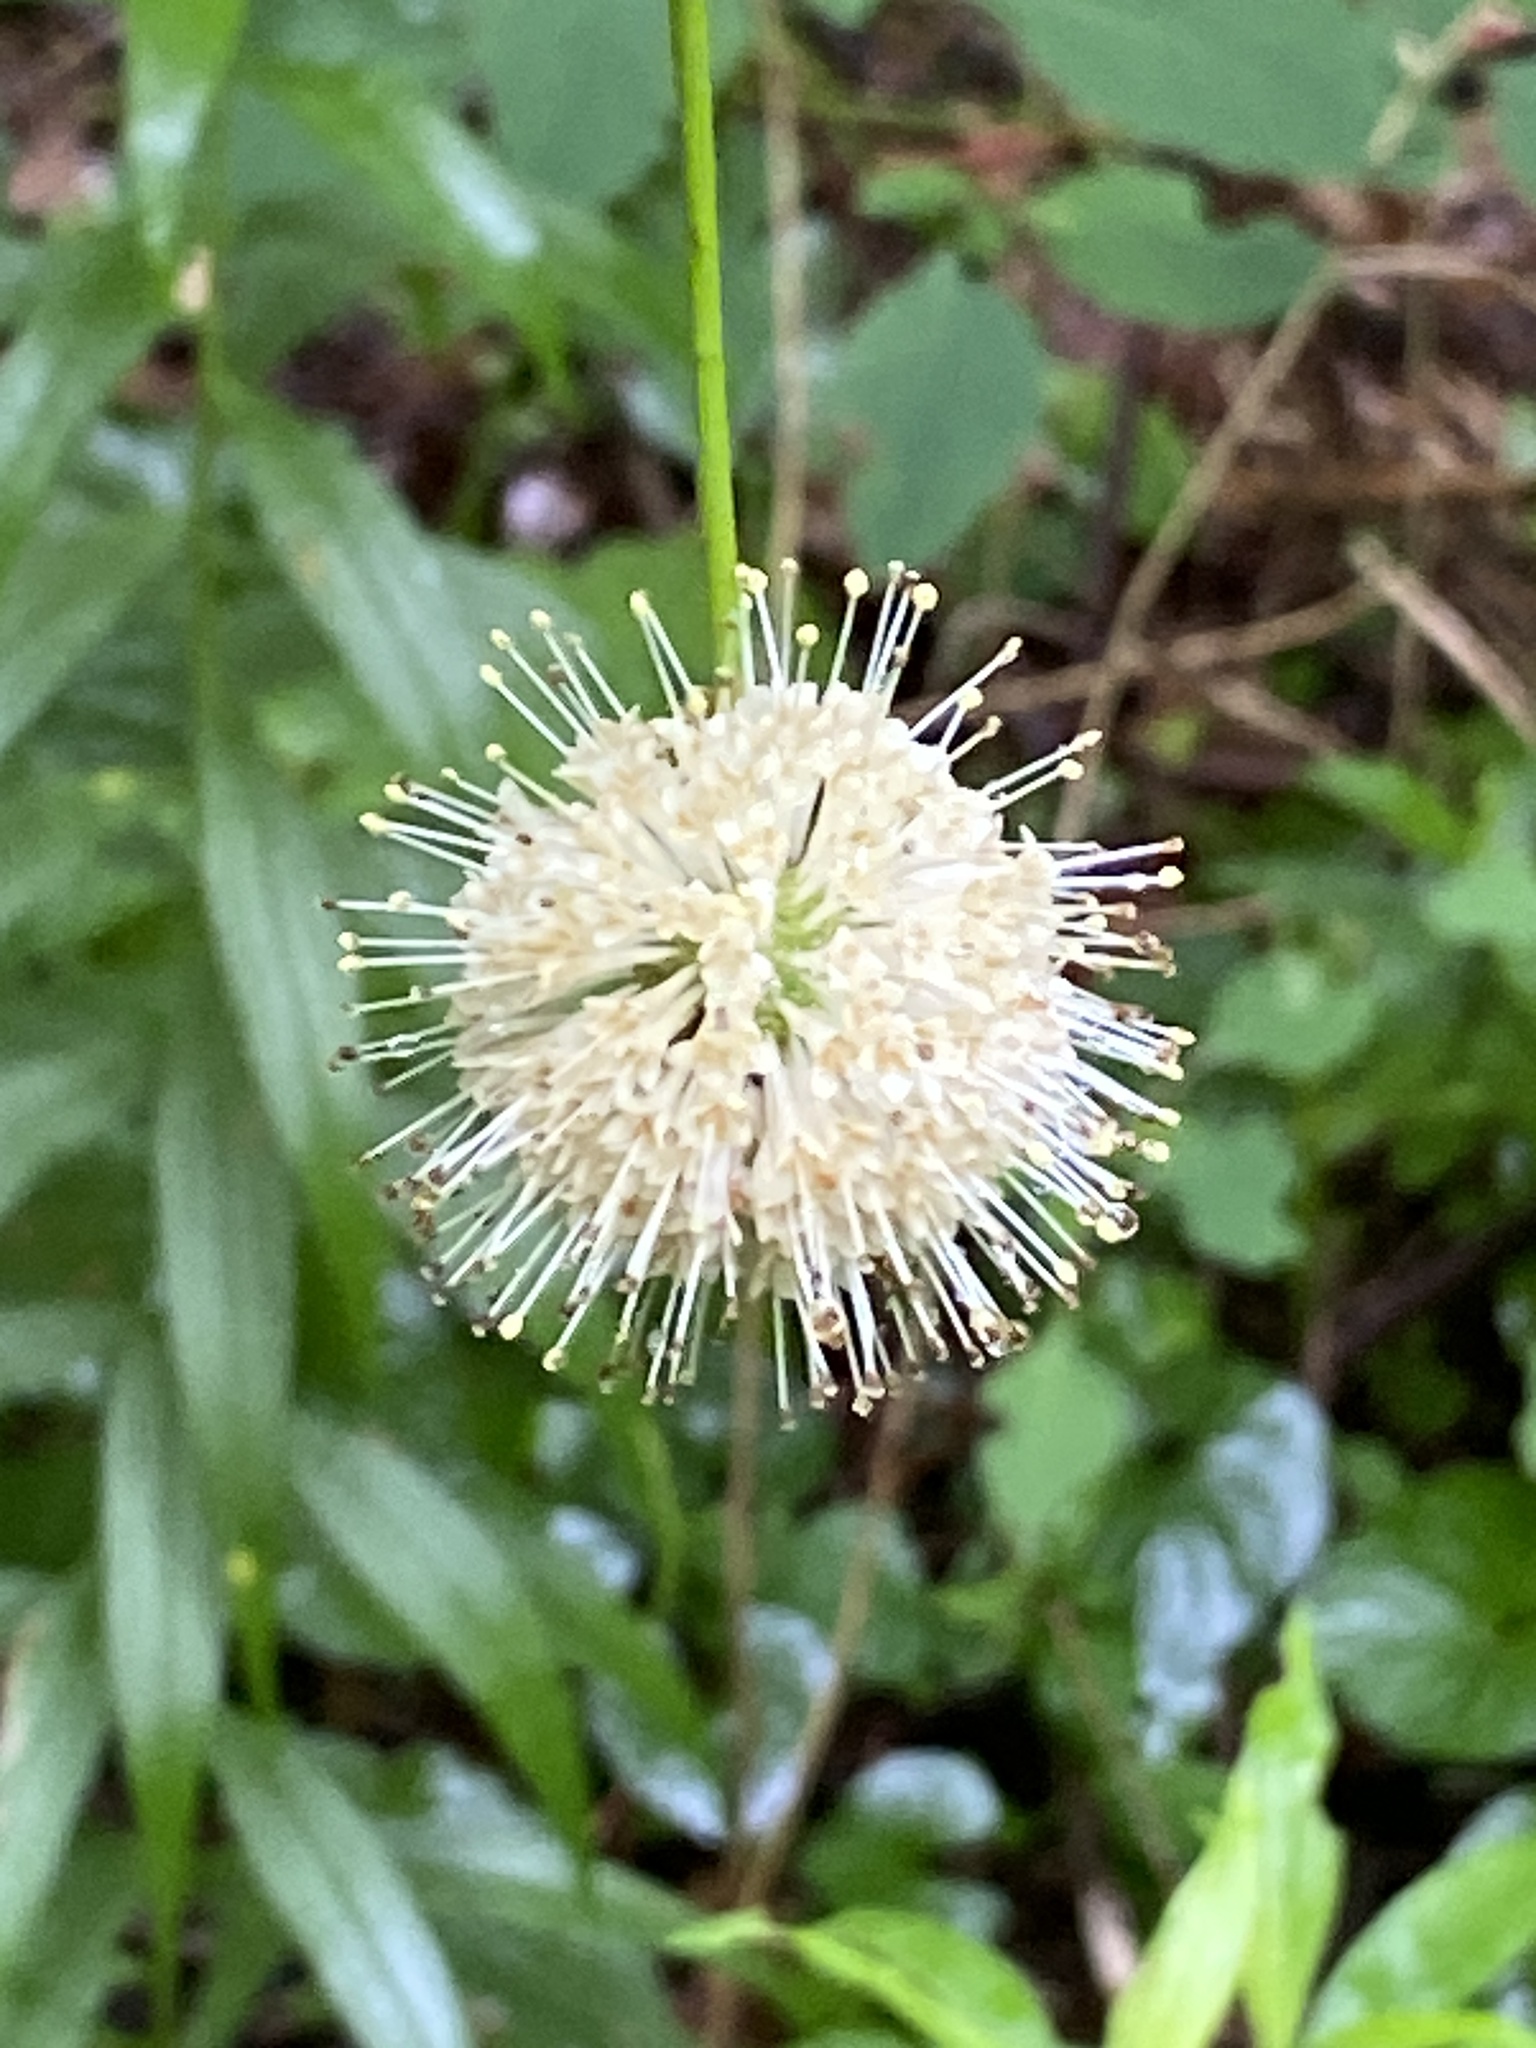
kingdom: Plantae
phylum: Tracheophyta
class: Magnoliopsida
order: Gentianales
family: Rubiaceae
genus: Cephalanthus
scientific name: Cephalanthus occidentalis
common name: Button-willow
